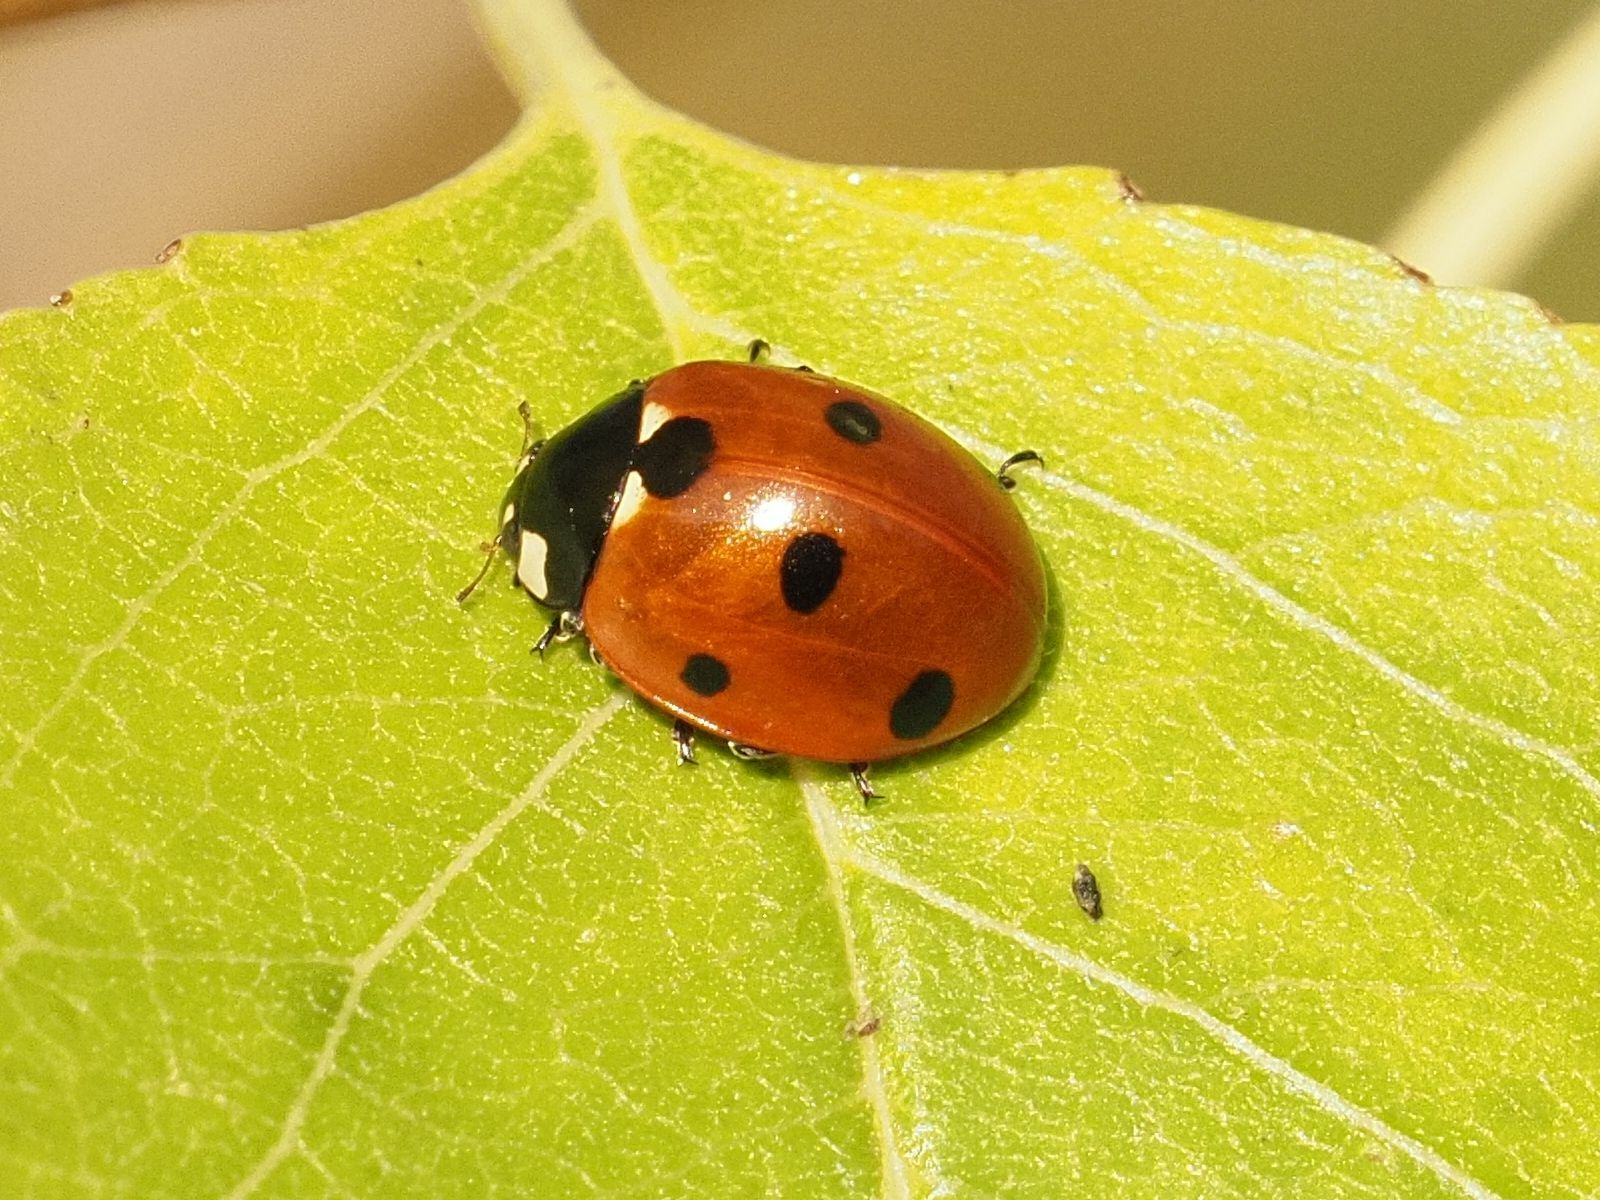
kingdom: Animalia
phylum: Arthropoda
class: Insecta
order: Coleoptera
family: Coccinellidae
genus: Coccinella
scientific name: Coccinella septempunctata
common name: Sevenspotted lady beetle
